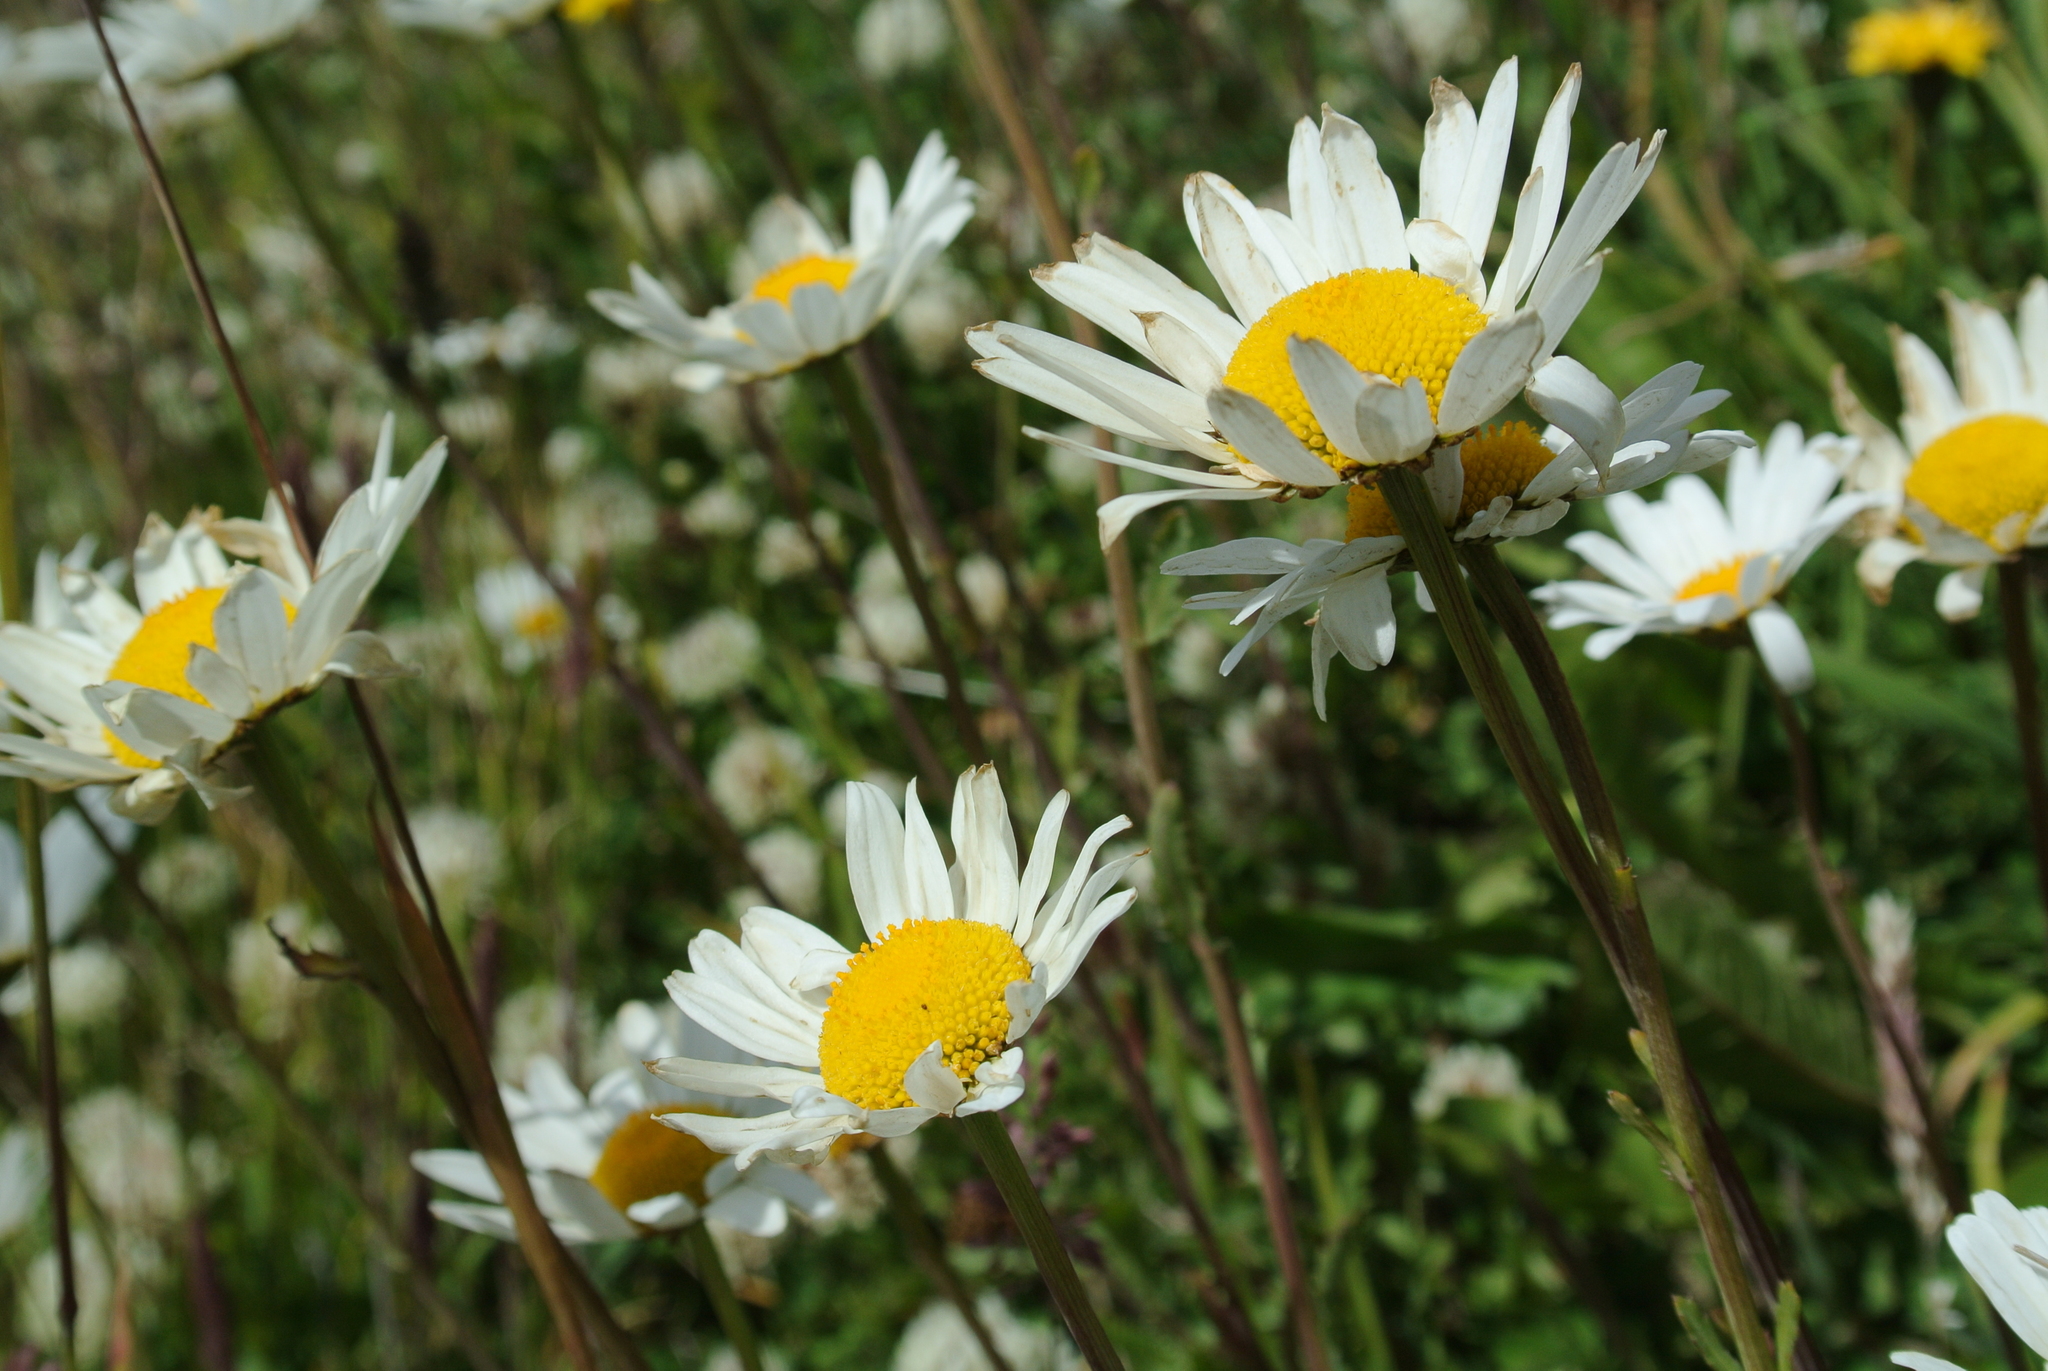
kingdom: Plantae
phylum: Tracheophyta
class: Magnoliopsida
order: Asterales
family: Asteraceae
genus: Leucanthemum
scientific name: Leucanthemum vulgare
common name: Oxeye daisy
